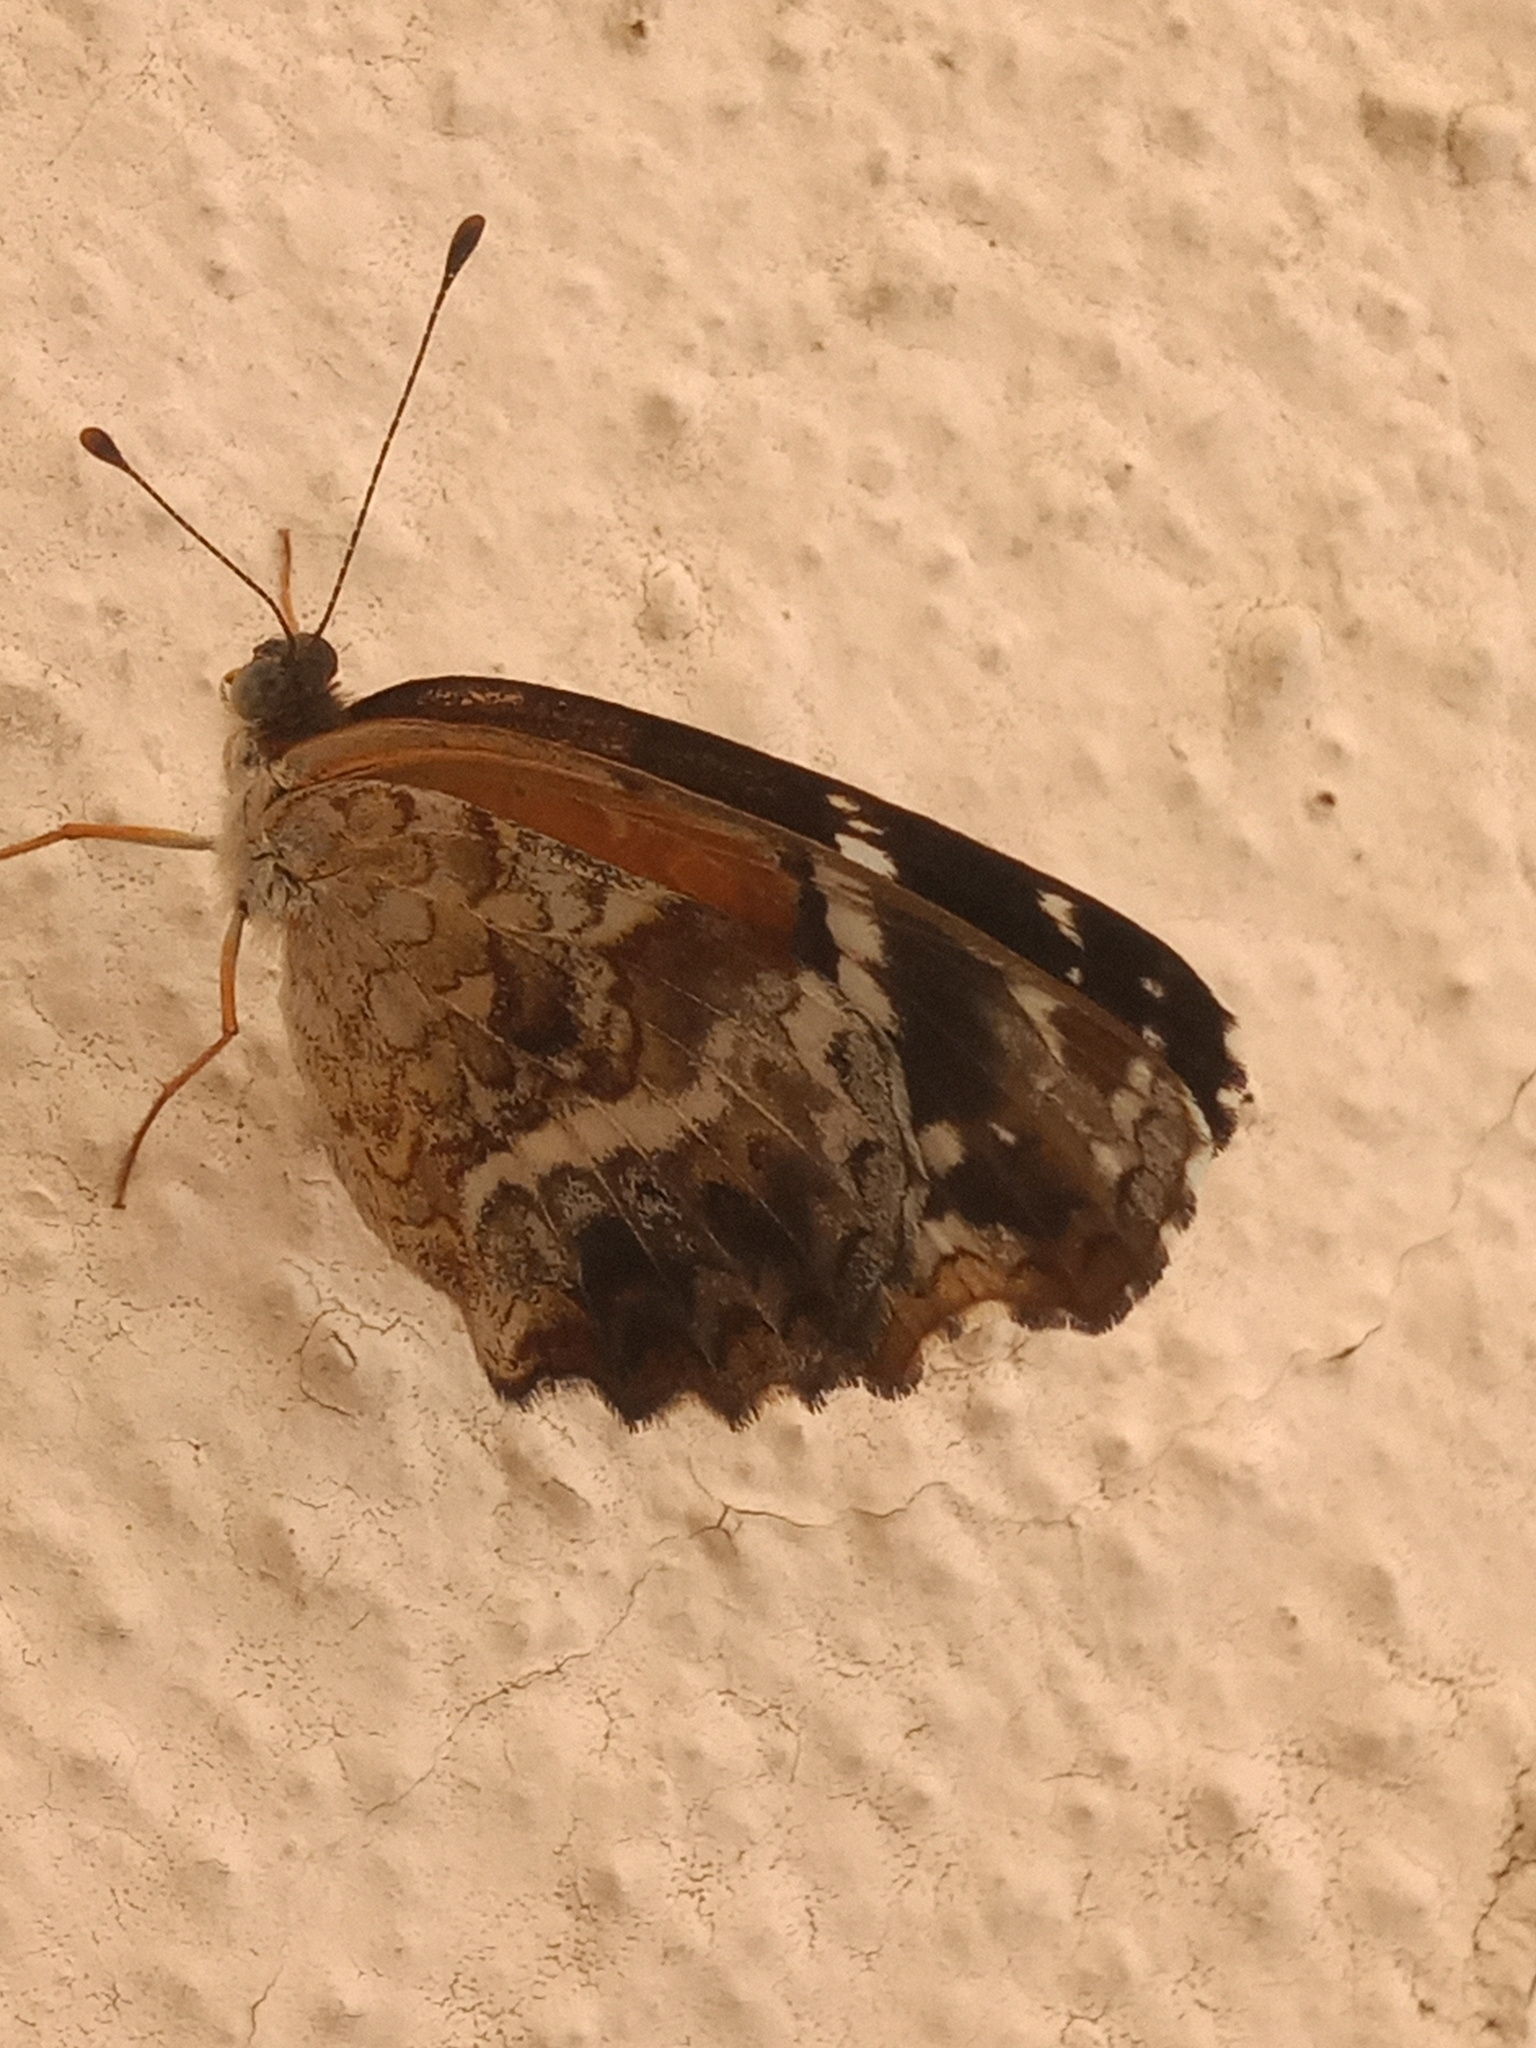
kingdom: Animalia
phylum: Arthropoda
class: Insecta
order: Lepidoptera
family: Nymphalidae
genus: Anthanassa
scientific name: Anthanassa texana
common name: Texan crescent
